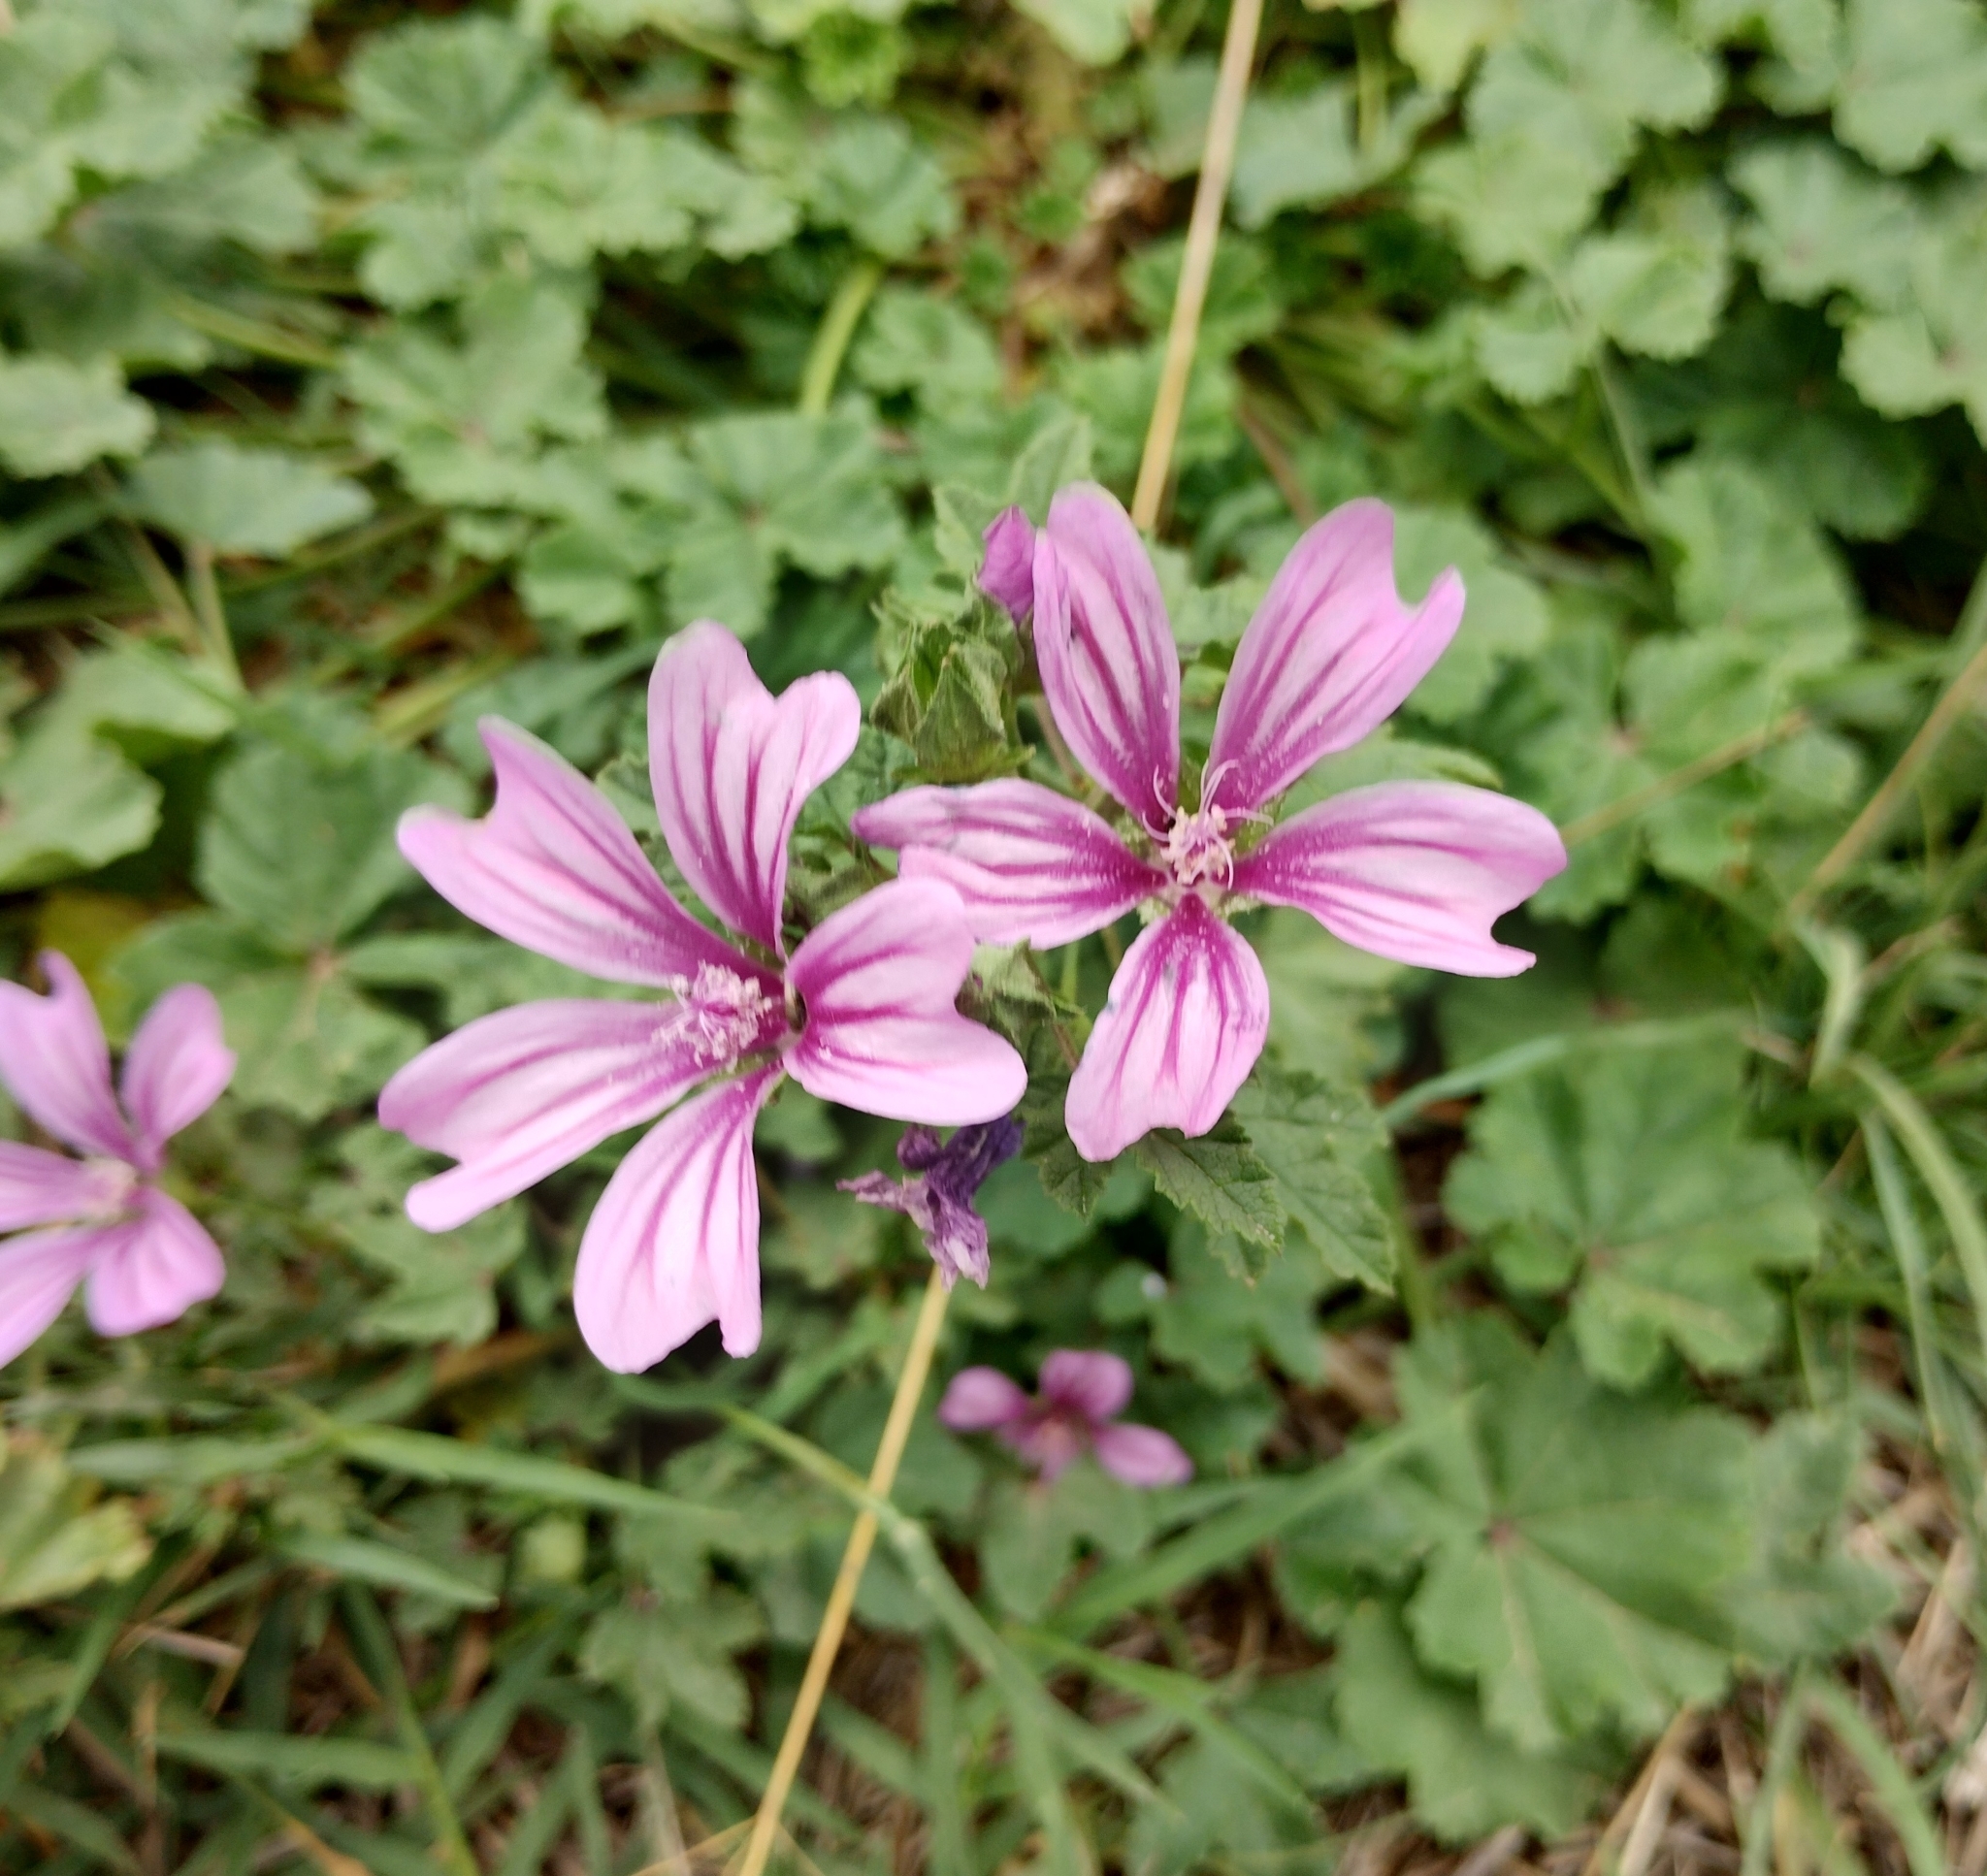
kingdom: Plantae
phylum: Tracheophyta
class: Magnoliopsida
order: Malvales
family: Malvaceae
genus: Malva
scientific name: Malva sylvestris
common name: Common mallow
